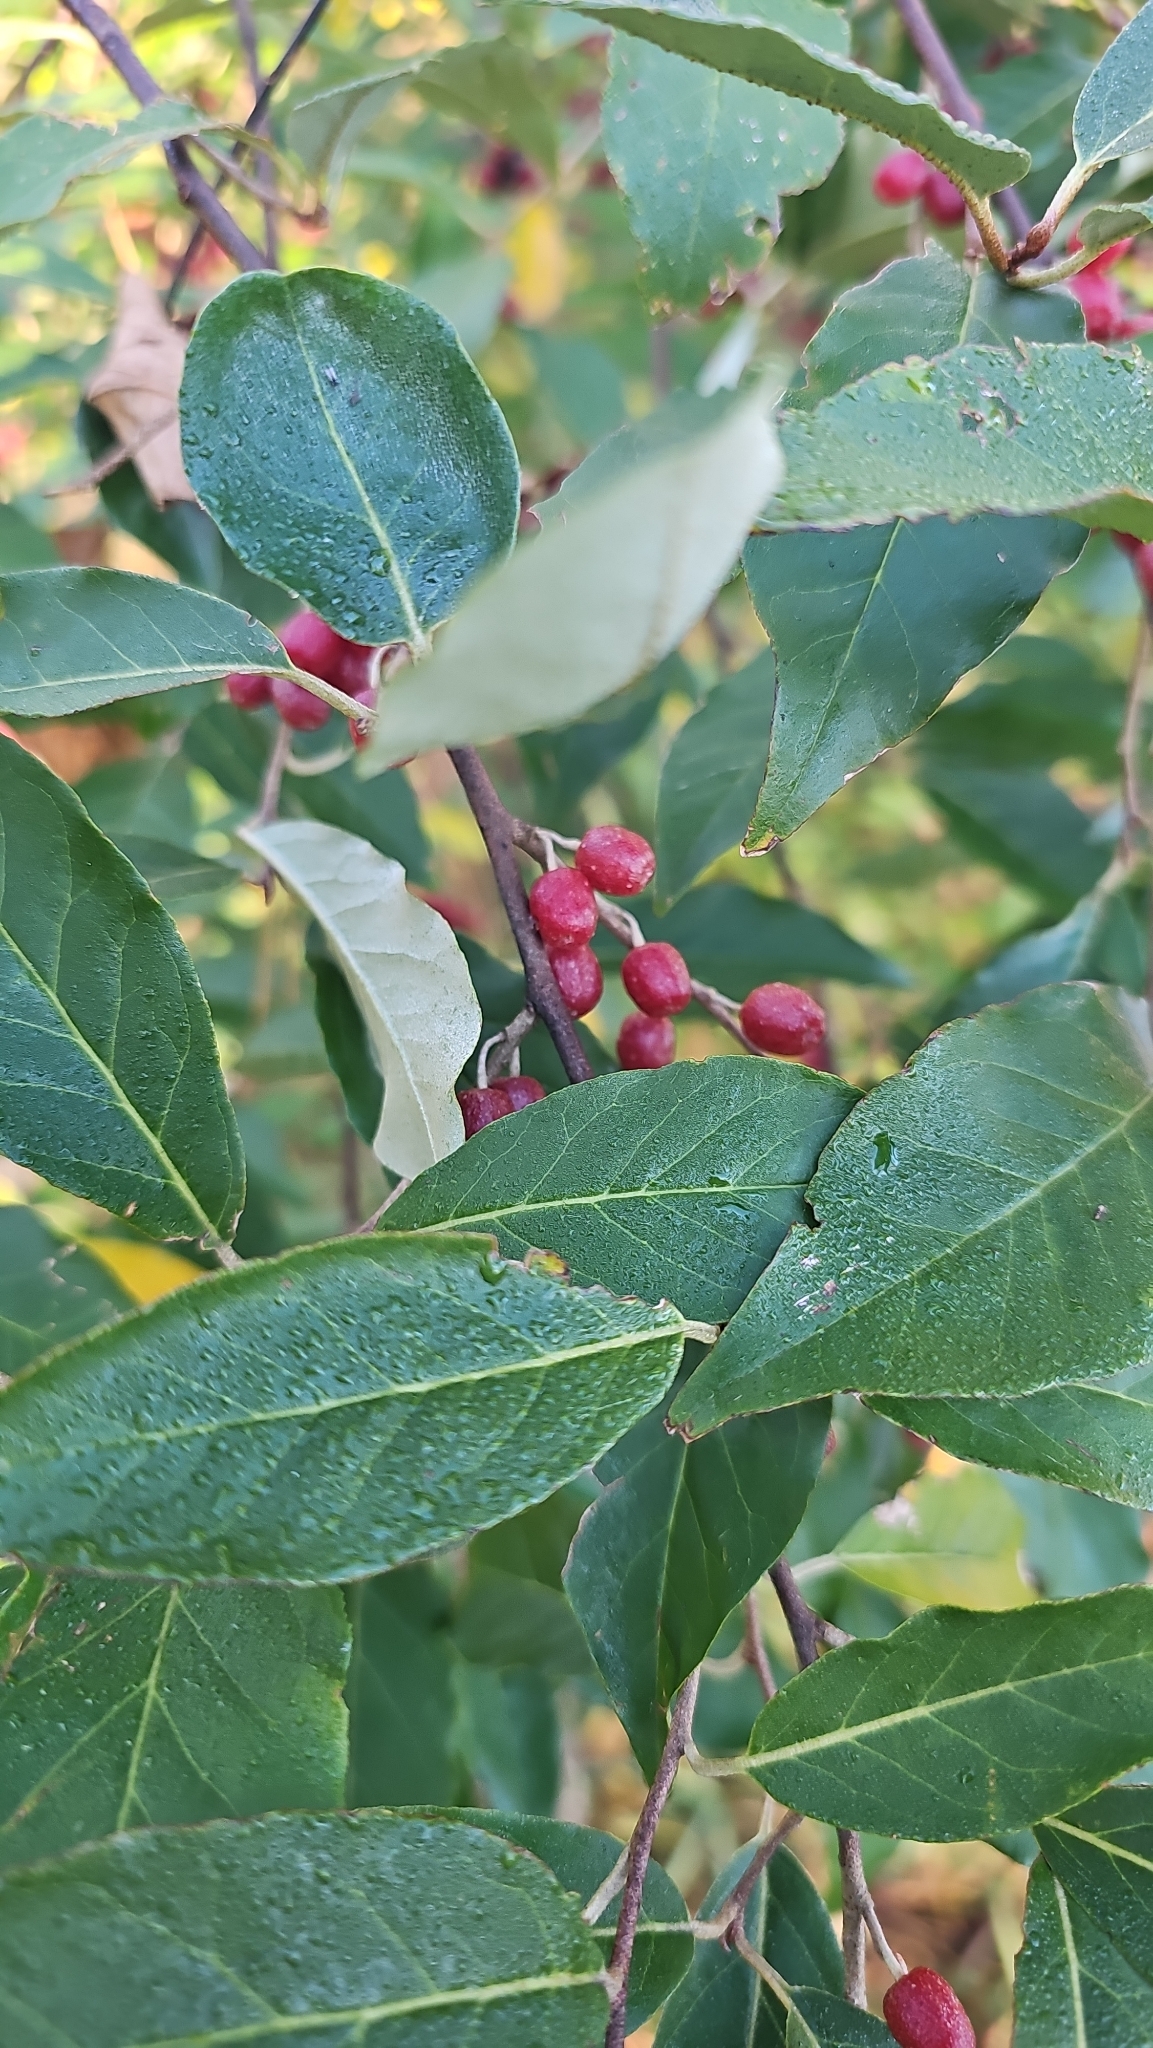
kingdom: Plantae
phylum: Tracheophyta
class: Magnoliopsida
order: Rosales
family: Elaeagnaceae
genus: Elaeagnus
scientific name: Elaeagnus umbellata
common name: Autumn olive
